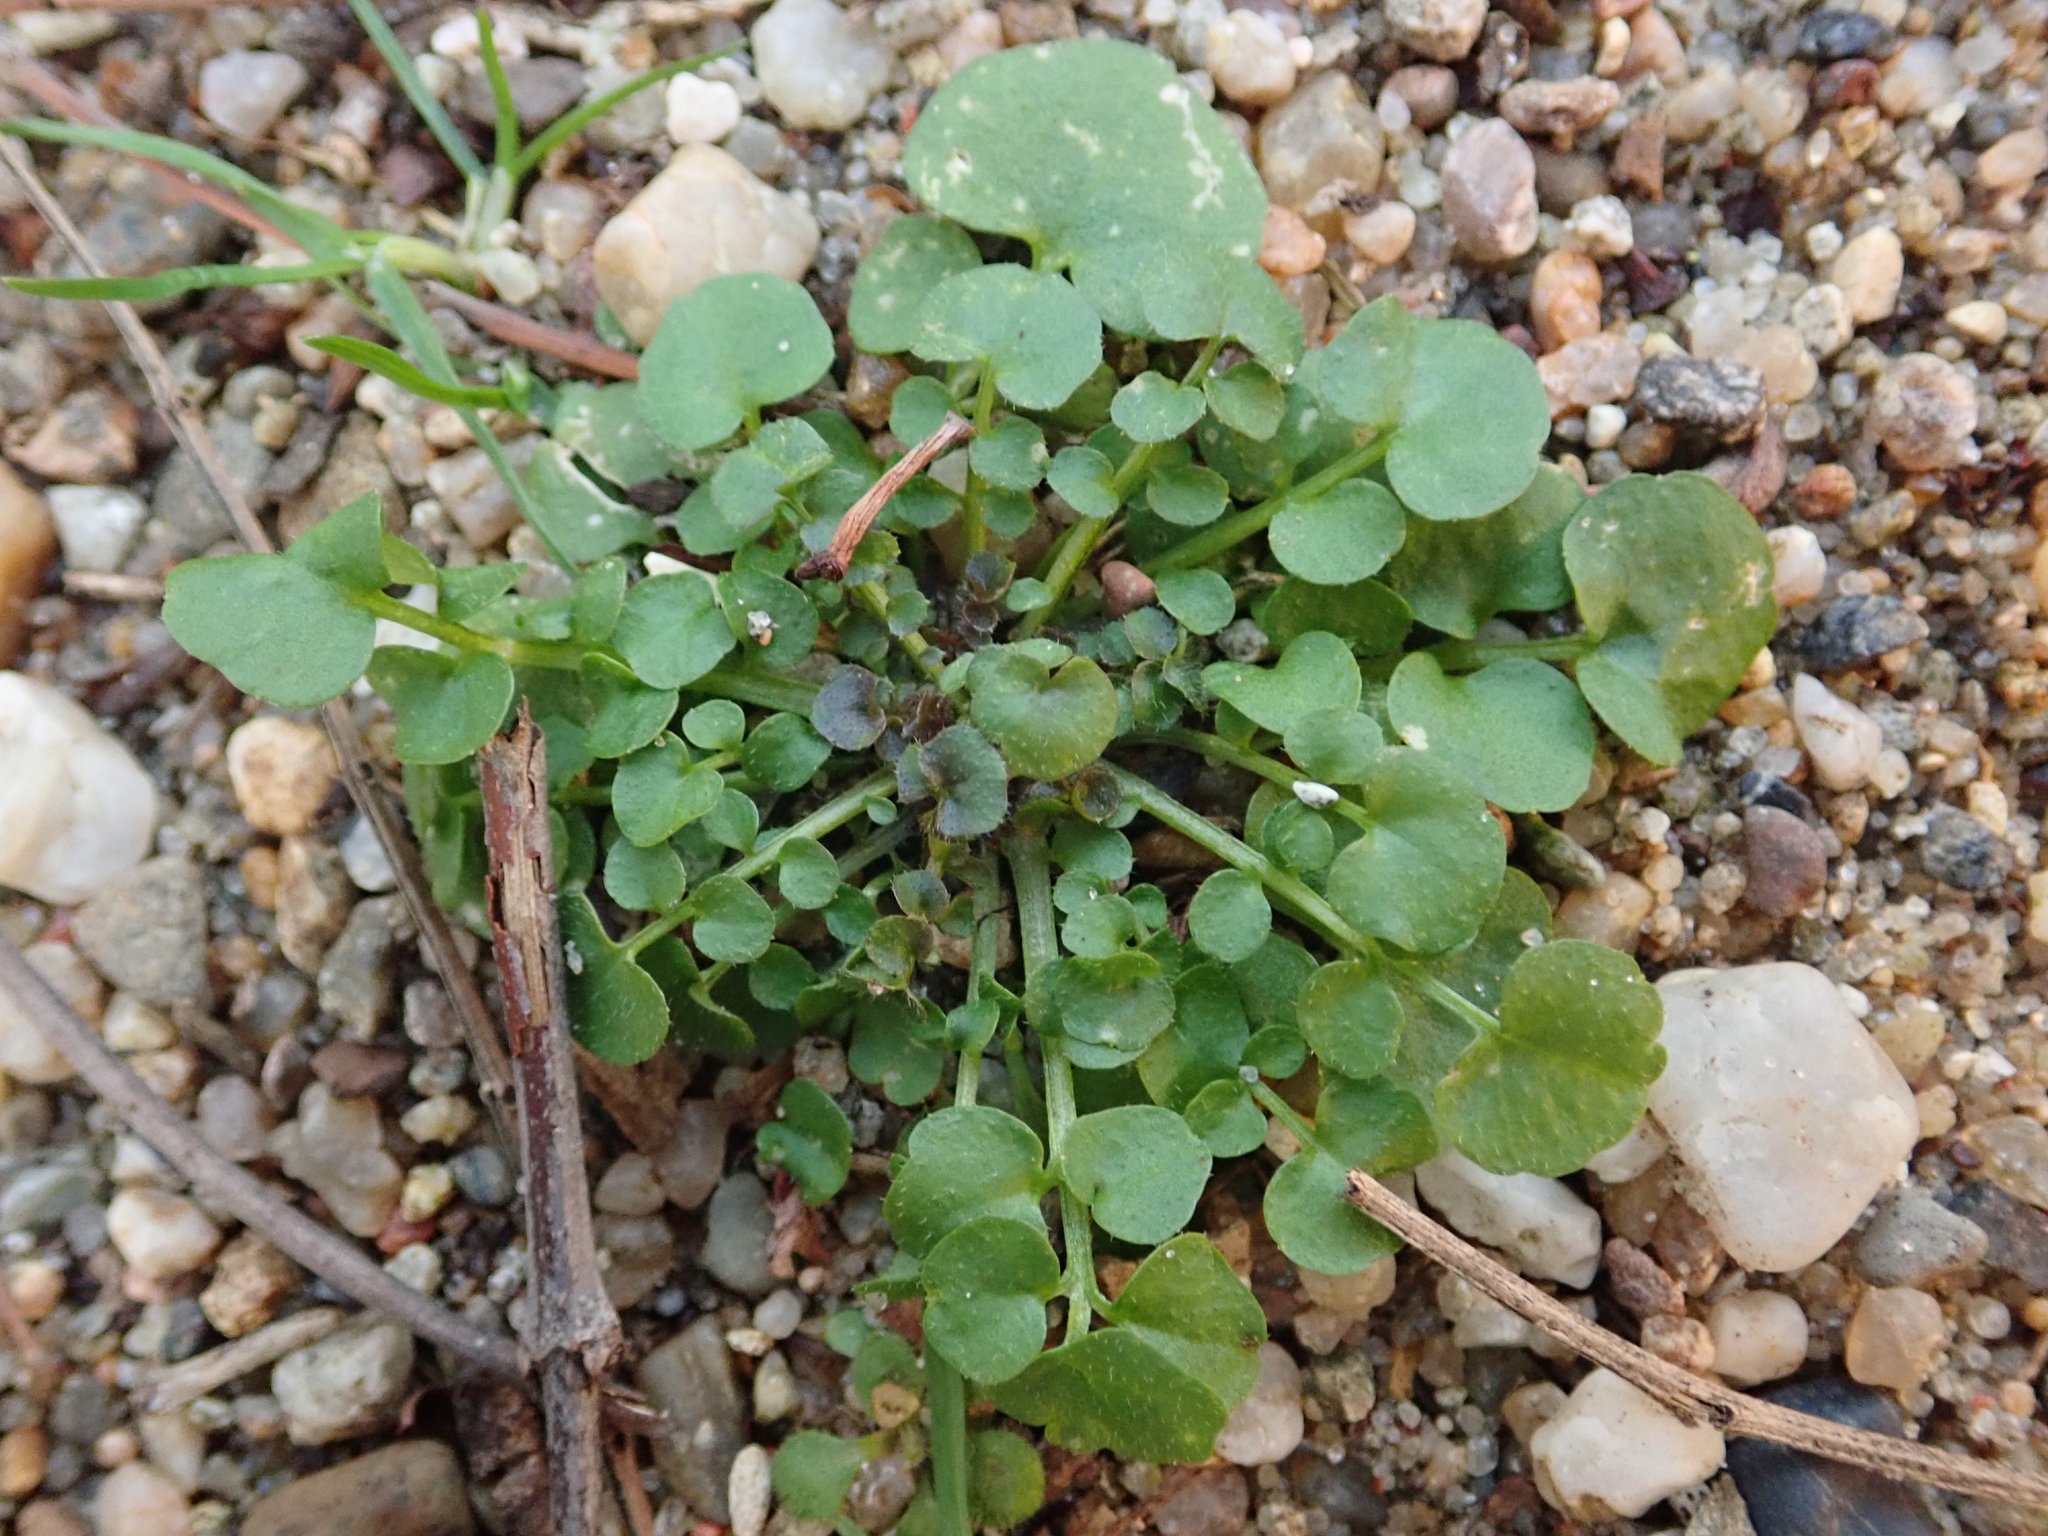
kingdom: Plantae
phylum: Tracheophyta
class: Magnoliopsida
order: Brassicales
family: Brassicaceae
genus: Cardamine
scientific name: Cardamine hirsuta
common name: Hairy bittercress
